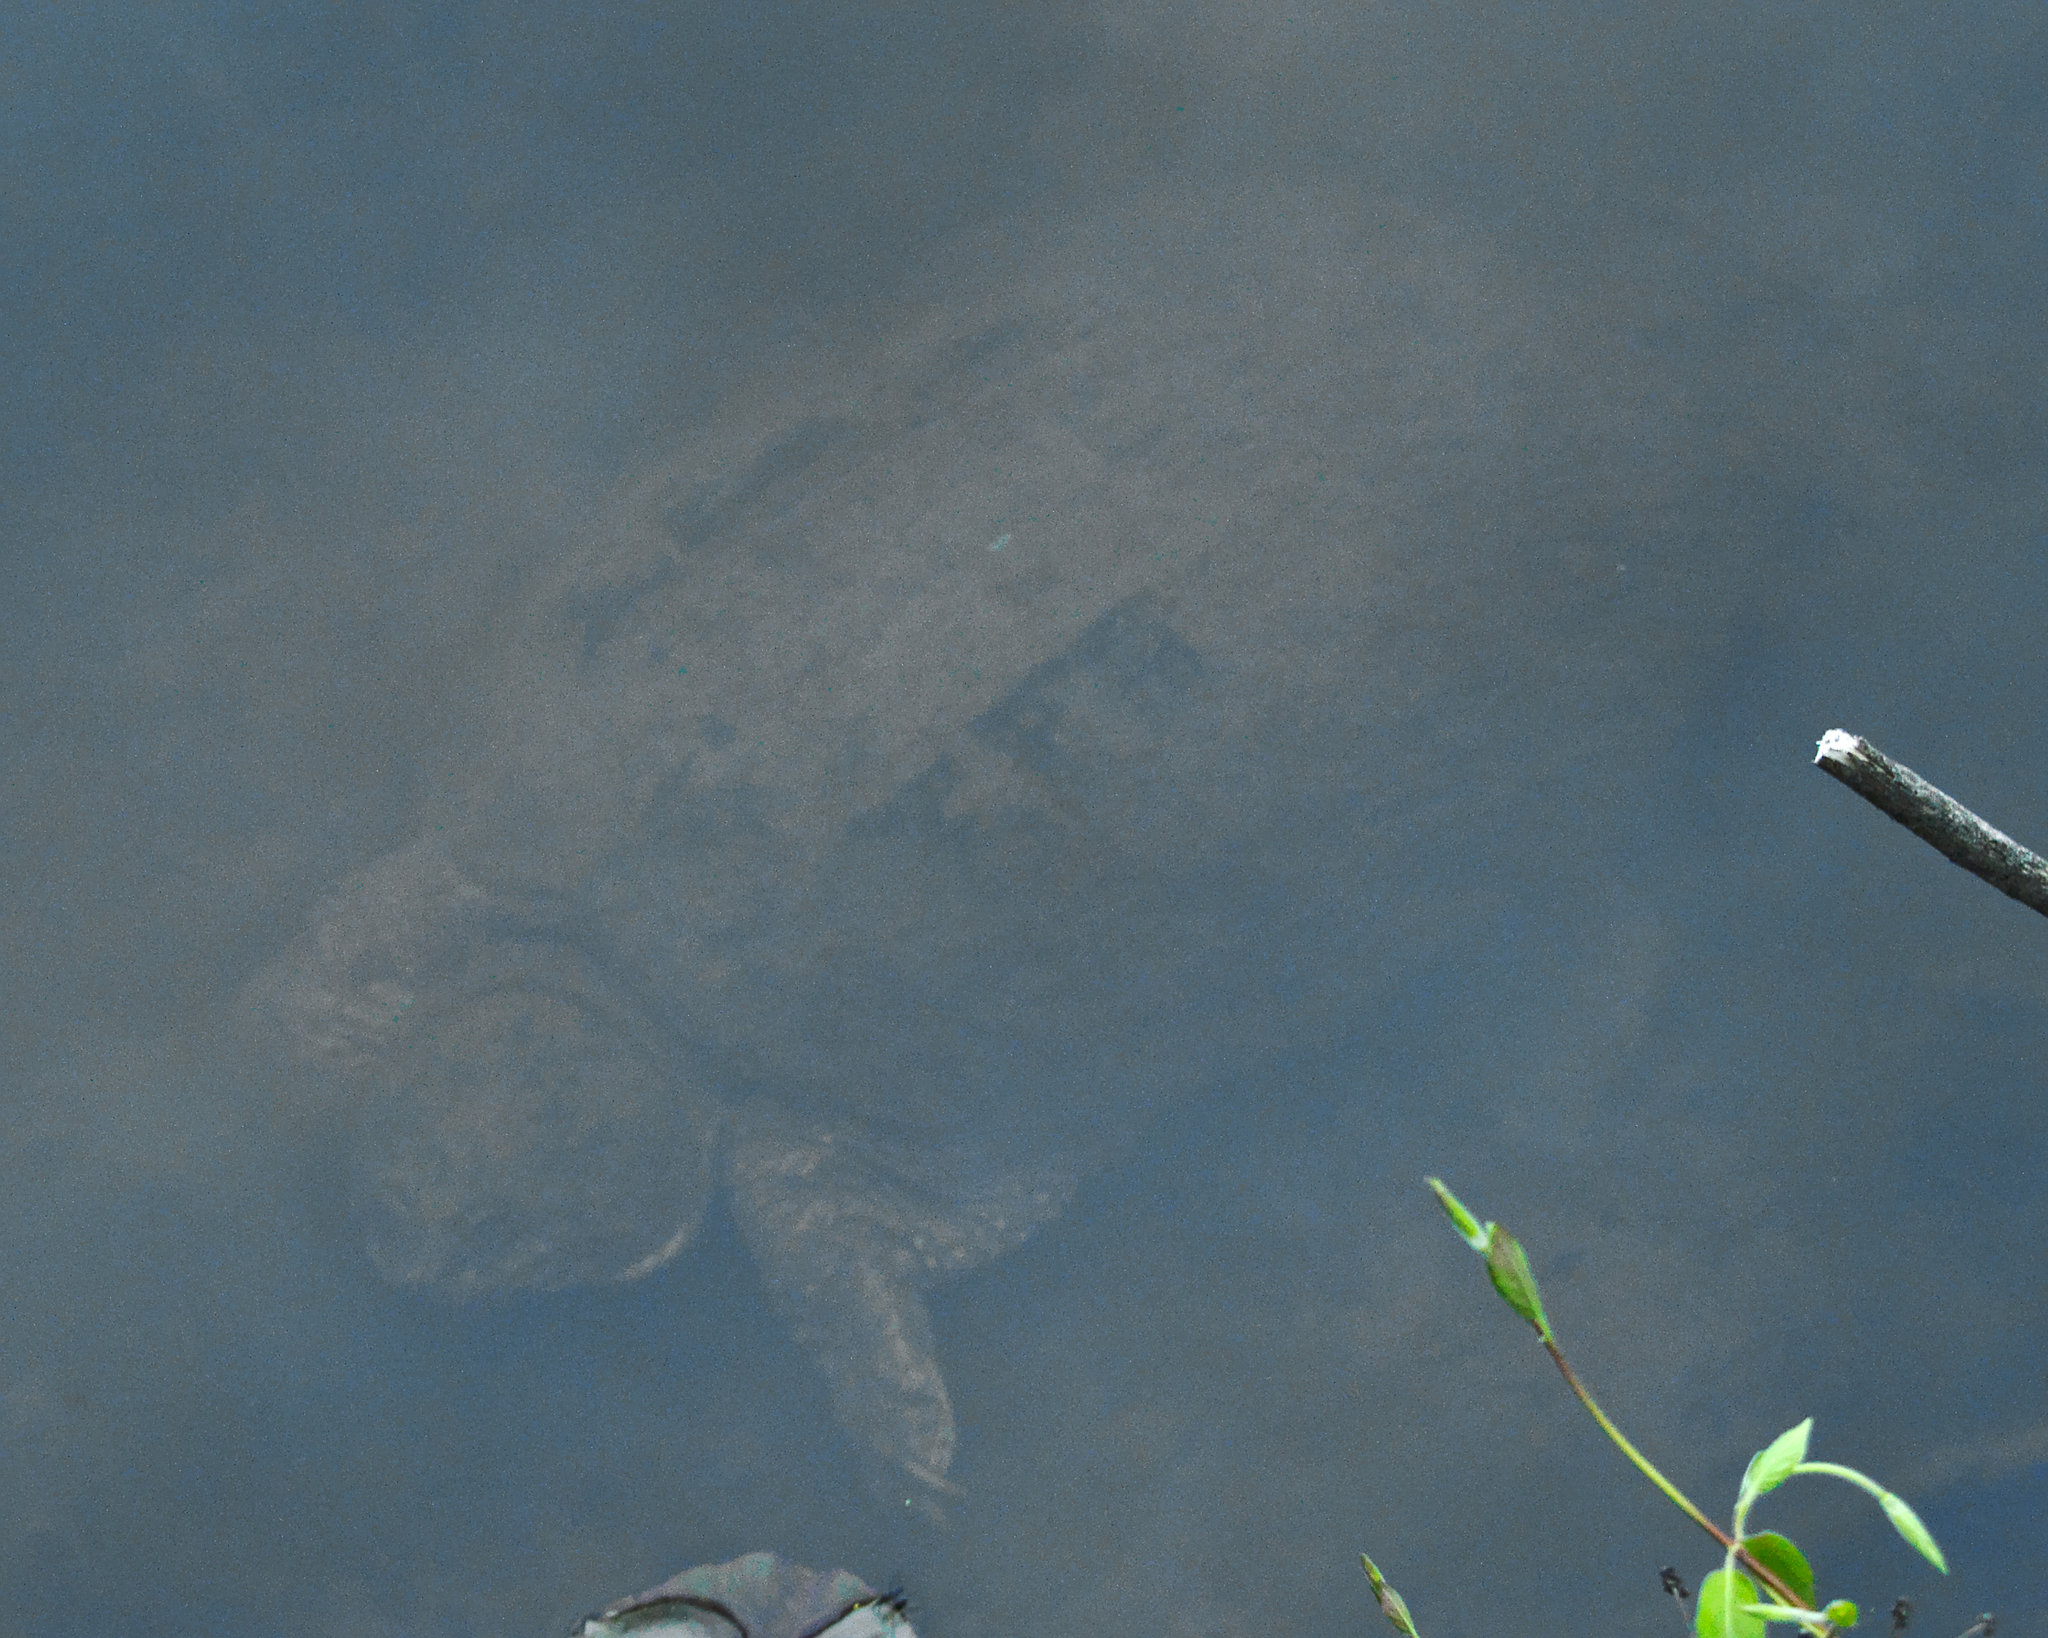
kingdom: Animalia
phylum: Chordata
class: Testudines
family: Chelydridae
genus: Chelydra
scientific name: Chelydra serpentina
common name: Common snapping turtle
